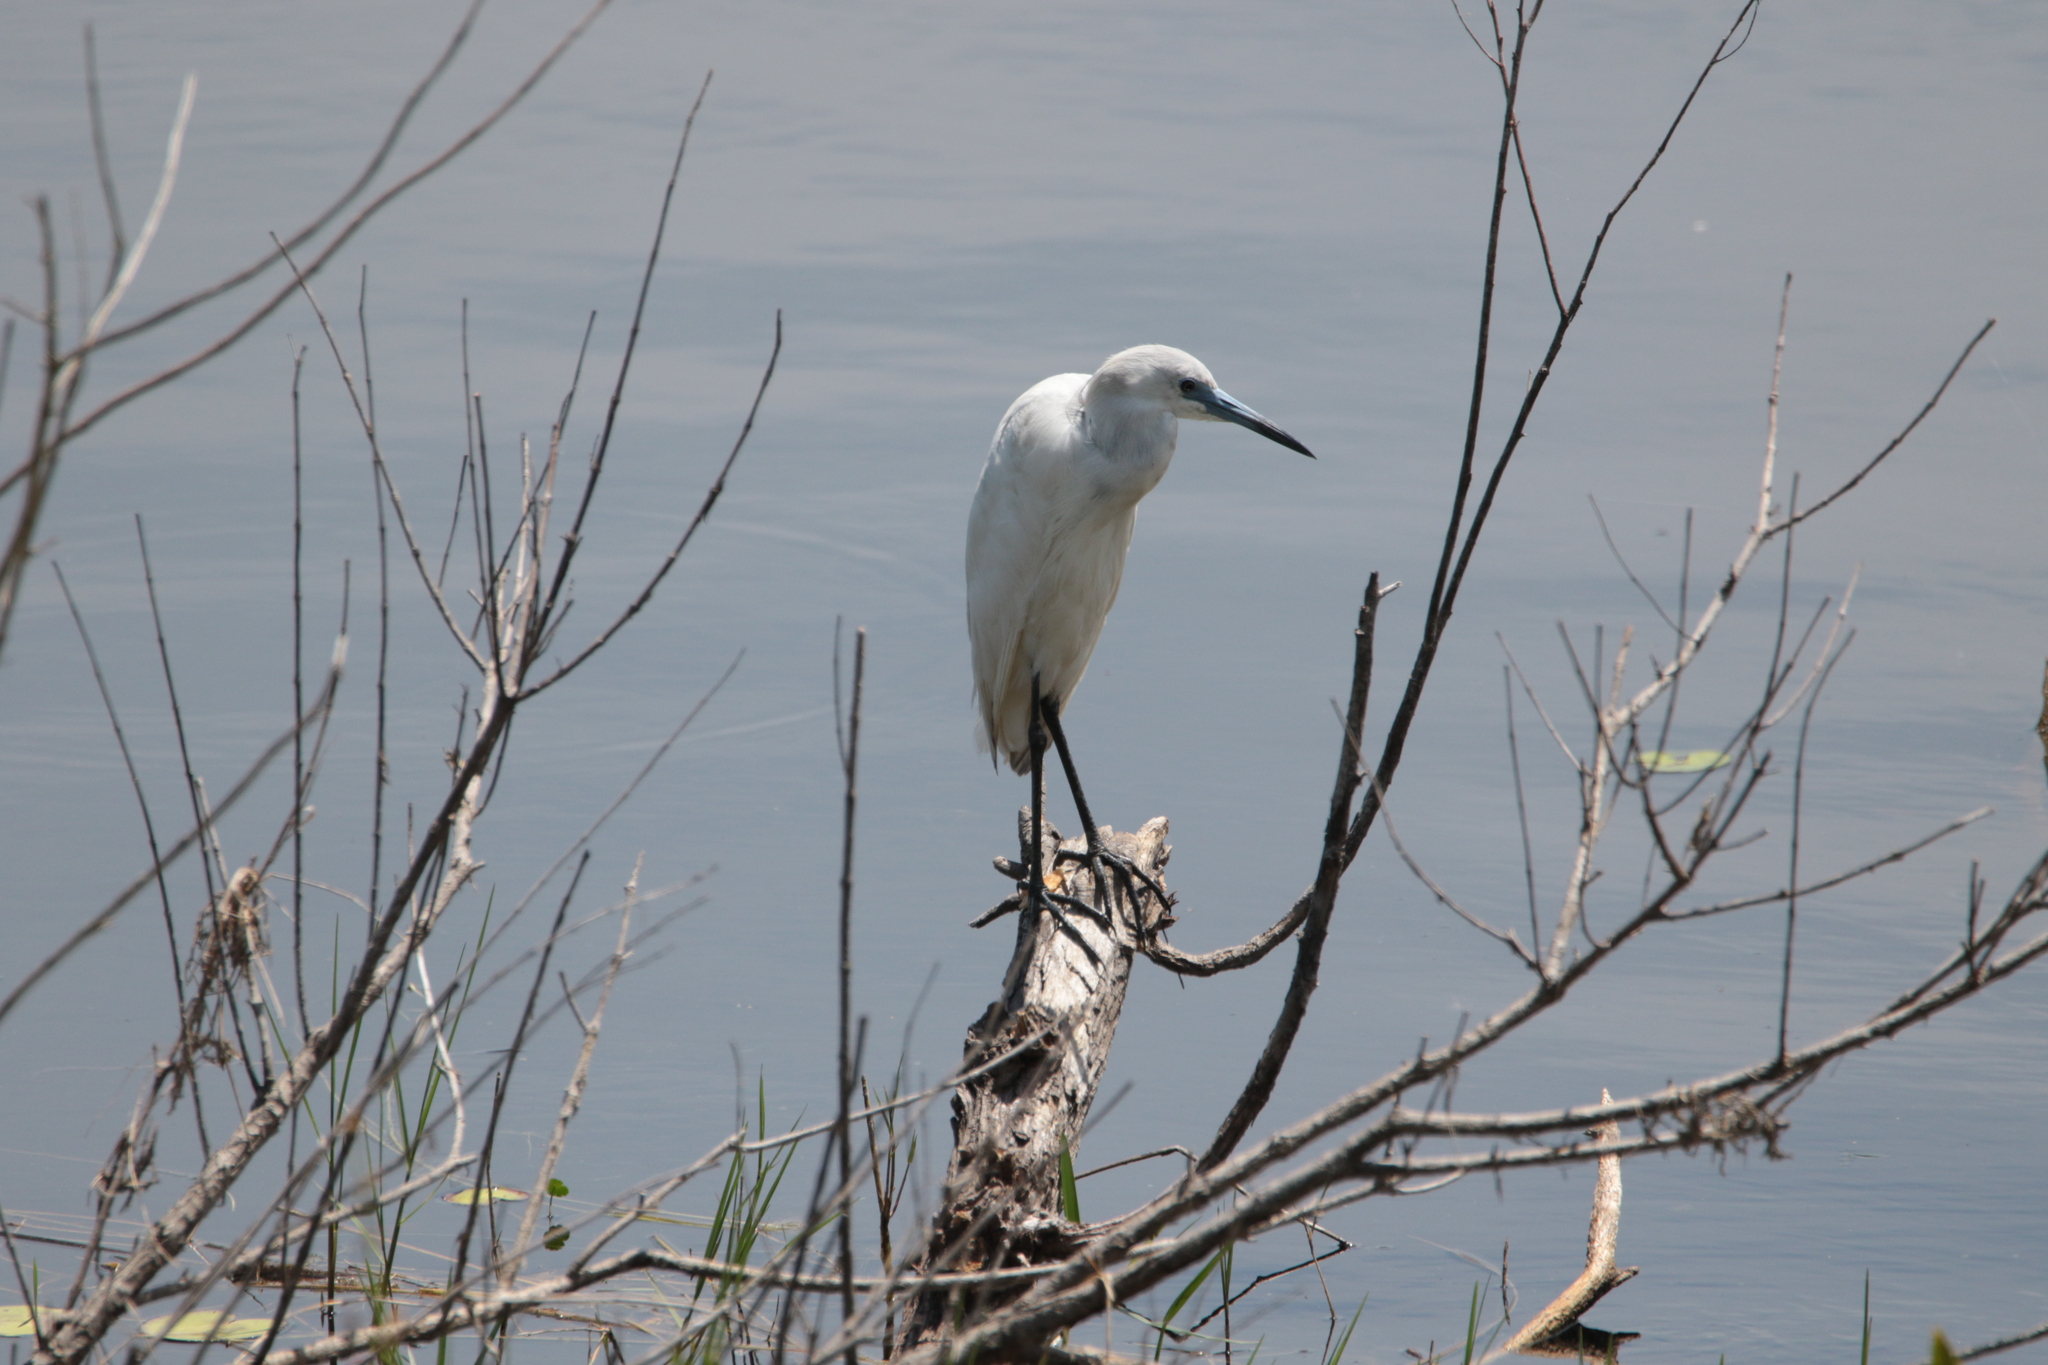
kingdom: Animalia
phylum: Chordata
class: Aves
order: Pelecaniformes
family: Ardeidae
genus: Egretta
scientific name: Egretta caerulea
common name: Little blue heron
